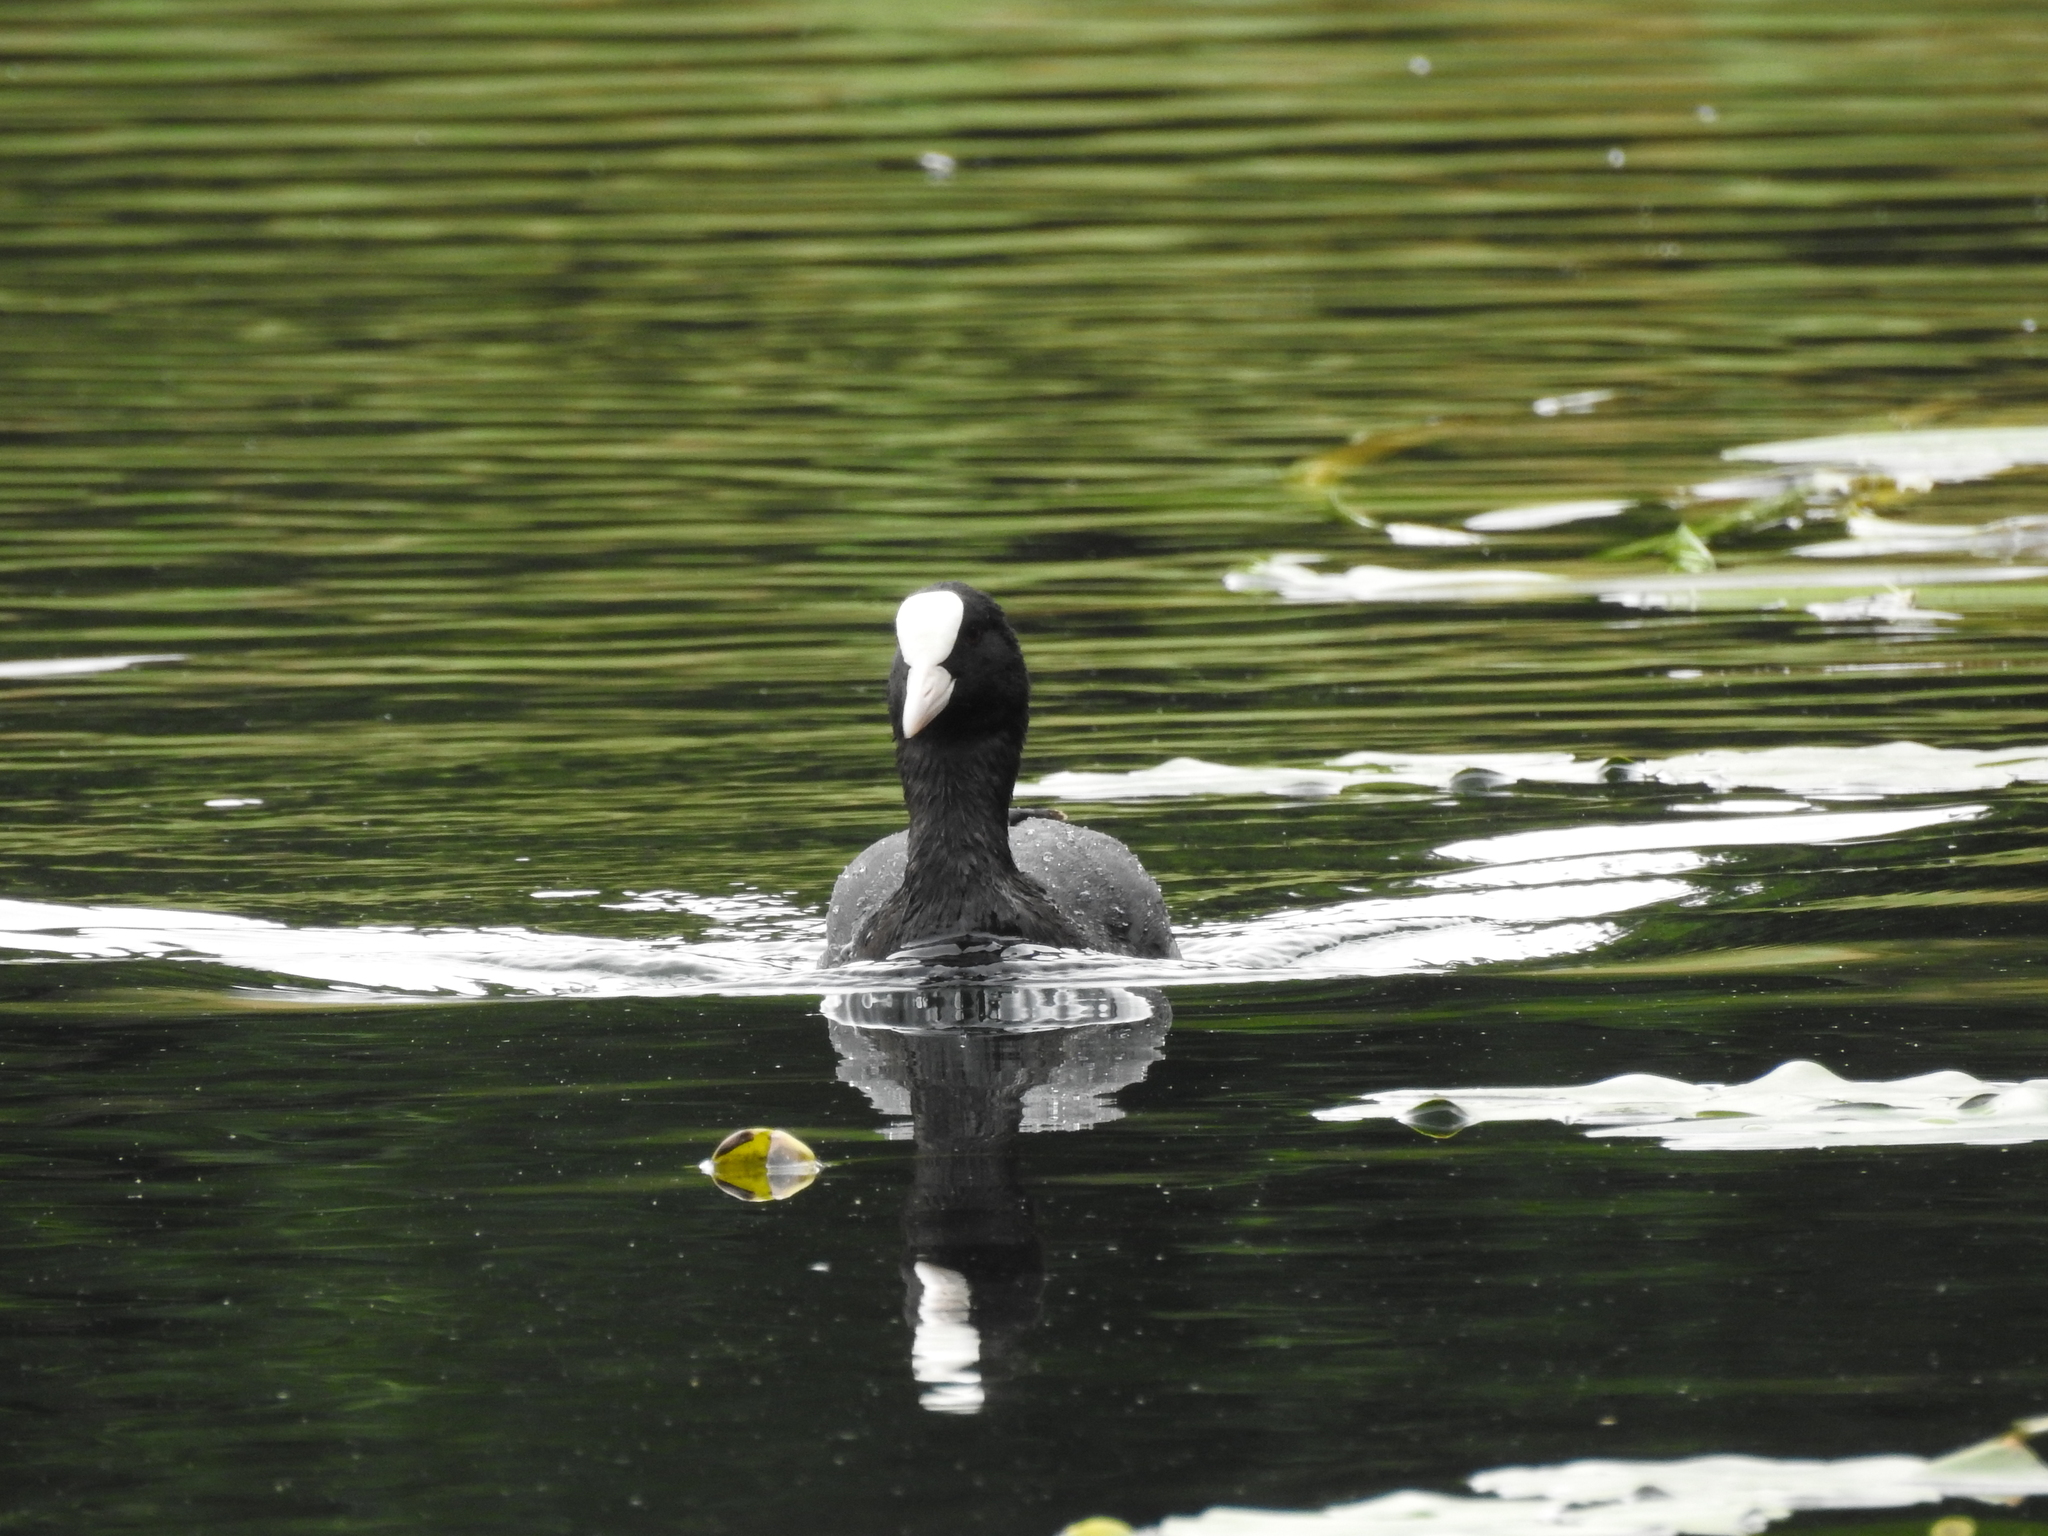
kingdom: Animalia
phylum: Chordata
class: Aves
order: Gruiformes
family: Rallidae
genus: Fulica
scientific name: Fulica atra
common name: Eurasian coot
